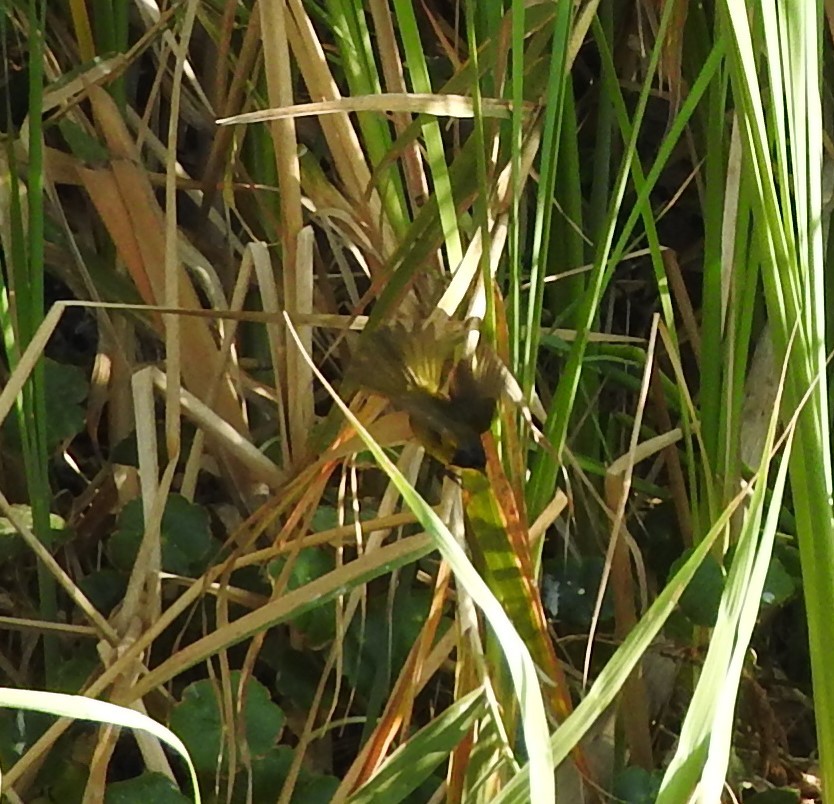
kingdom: Animalia
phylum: Chordata
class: Aves
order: Passeriformes
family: Parulidae
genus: Geothlypis
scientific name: Geothlypis speciosa
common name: Black-polled yellowthroat
